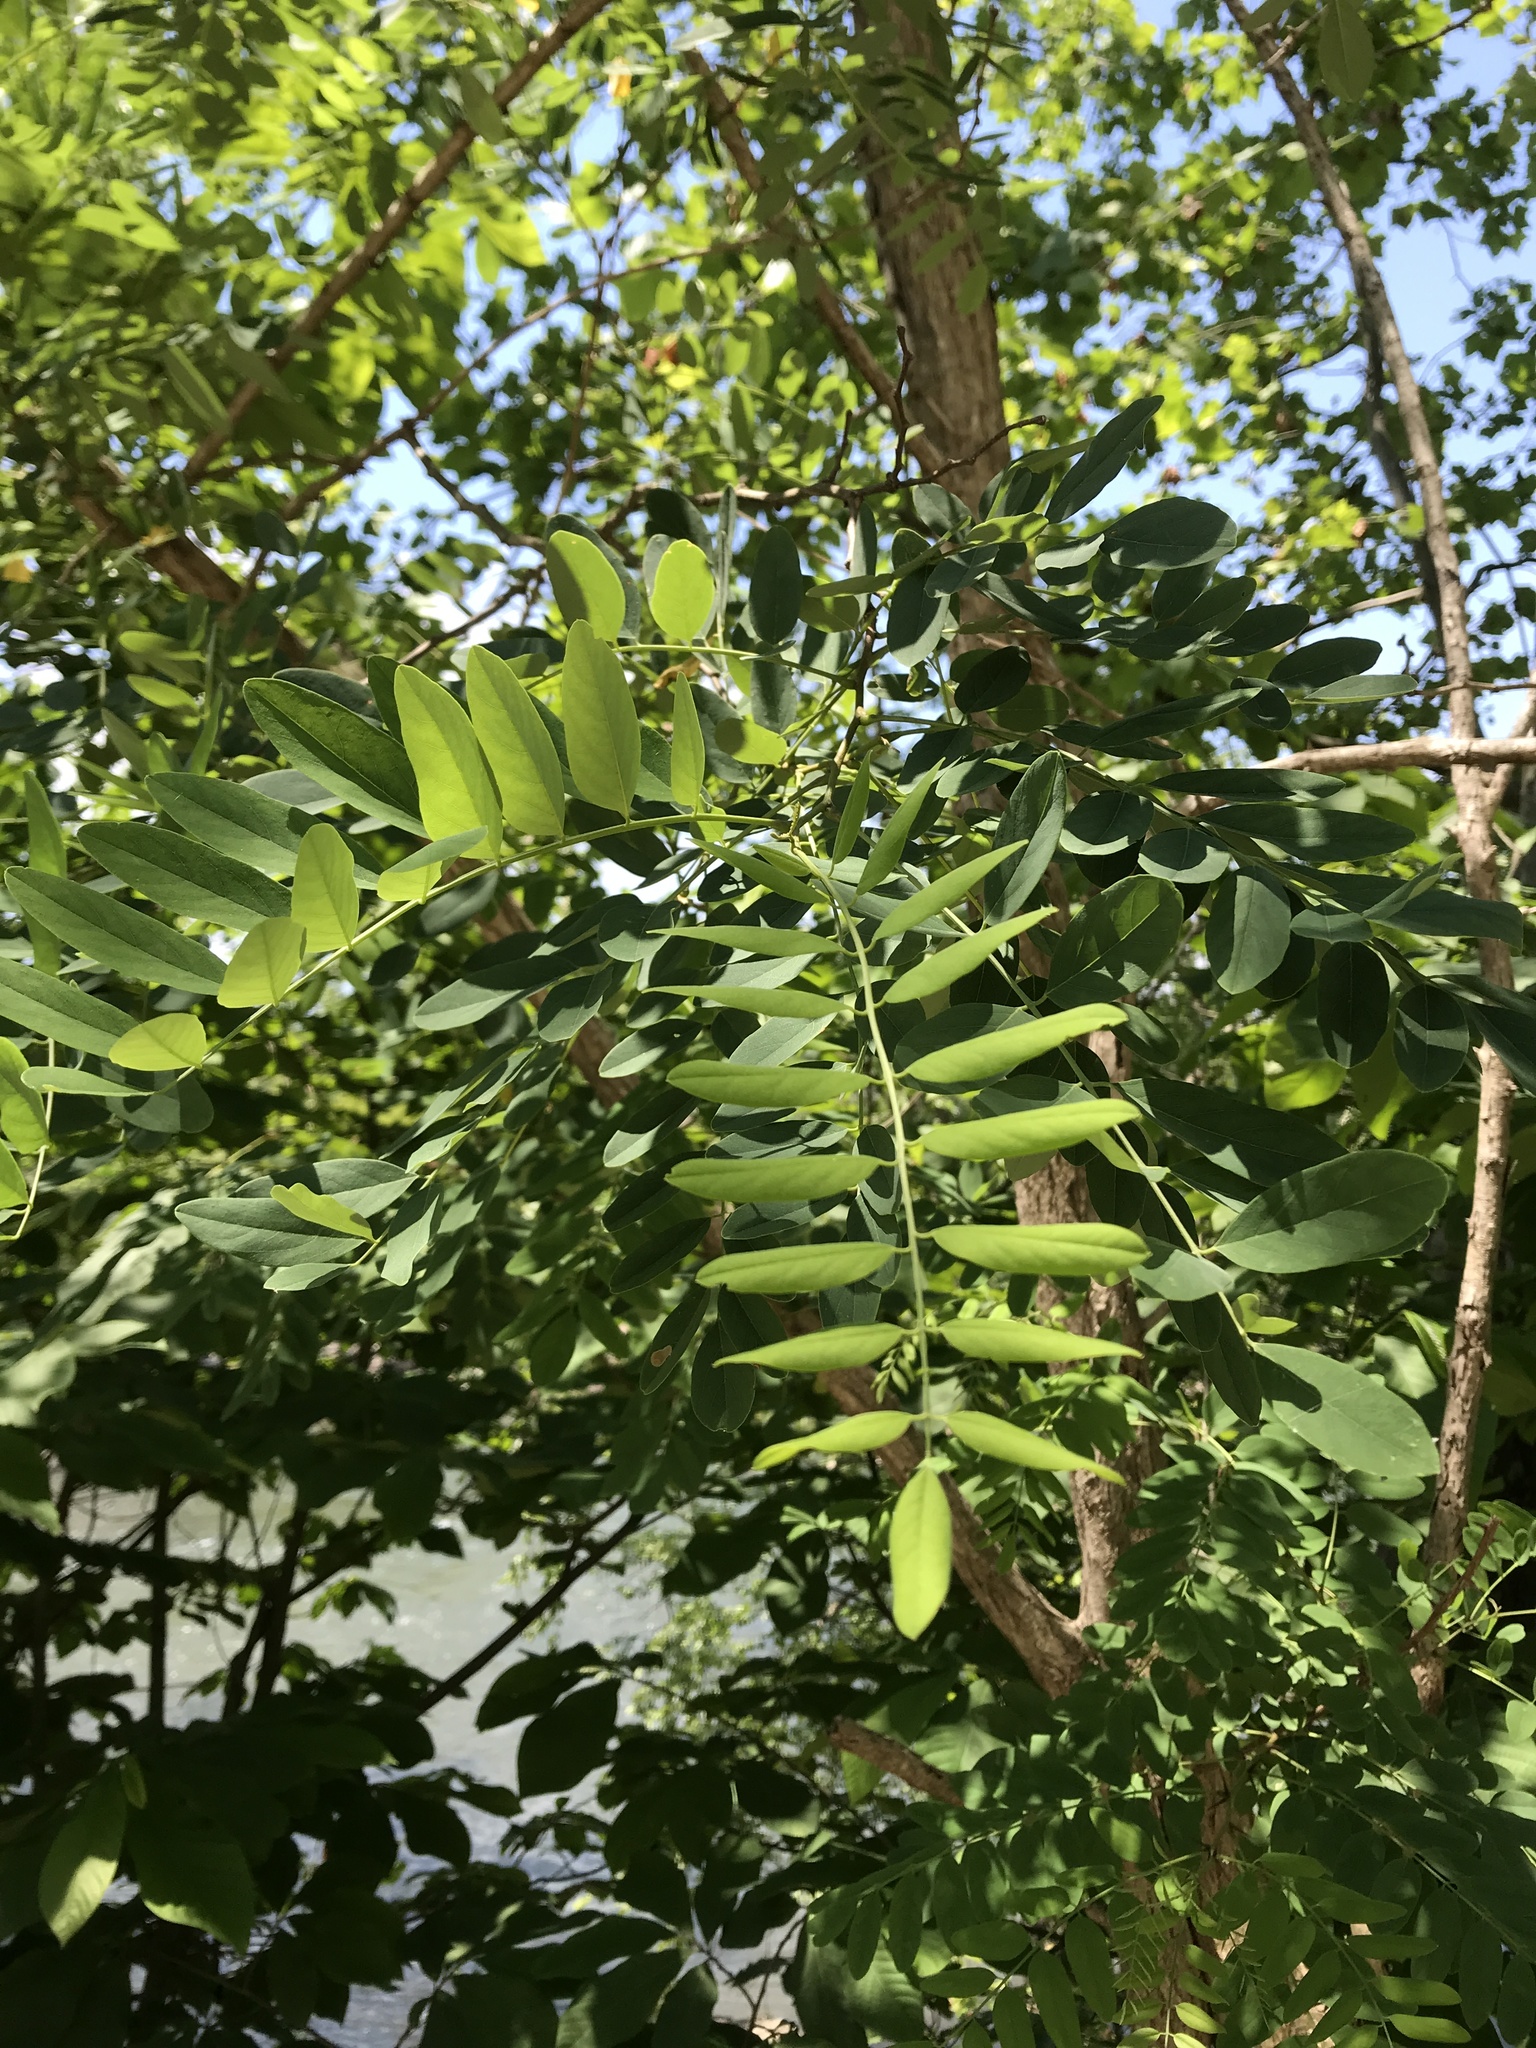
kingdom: Plantae
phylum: Tracheophyta
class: Magnoliopsida
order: Fabales
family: Fabaceae
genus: Robinia
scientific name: Robinia
